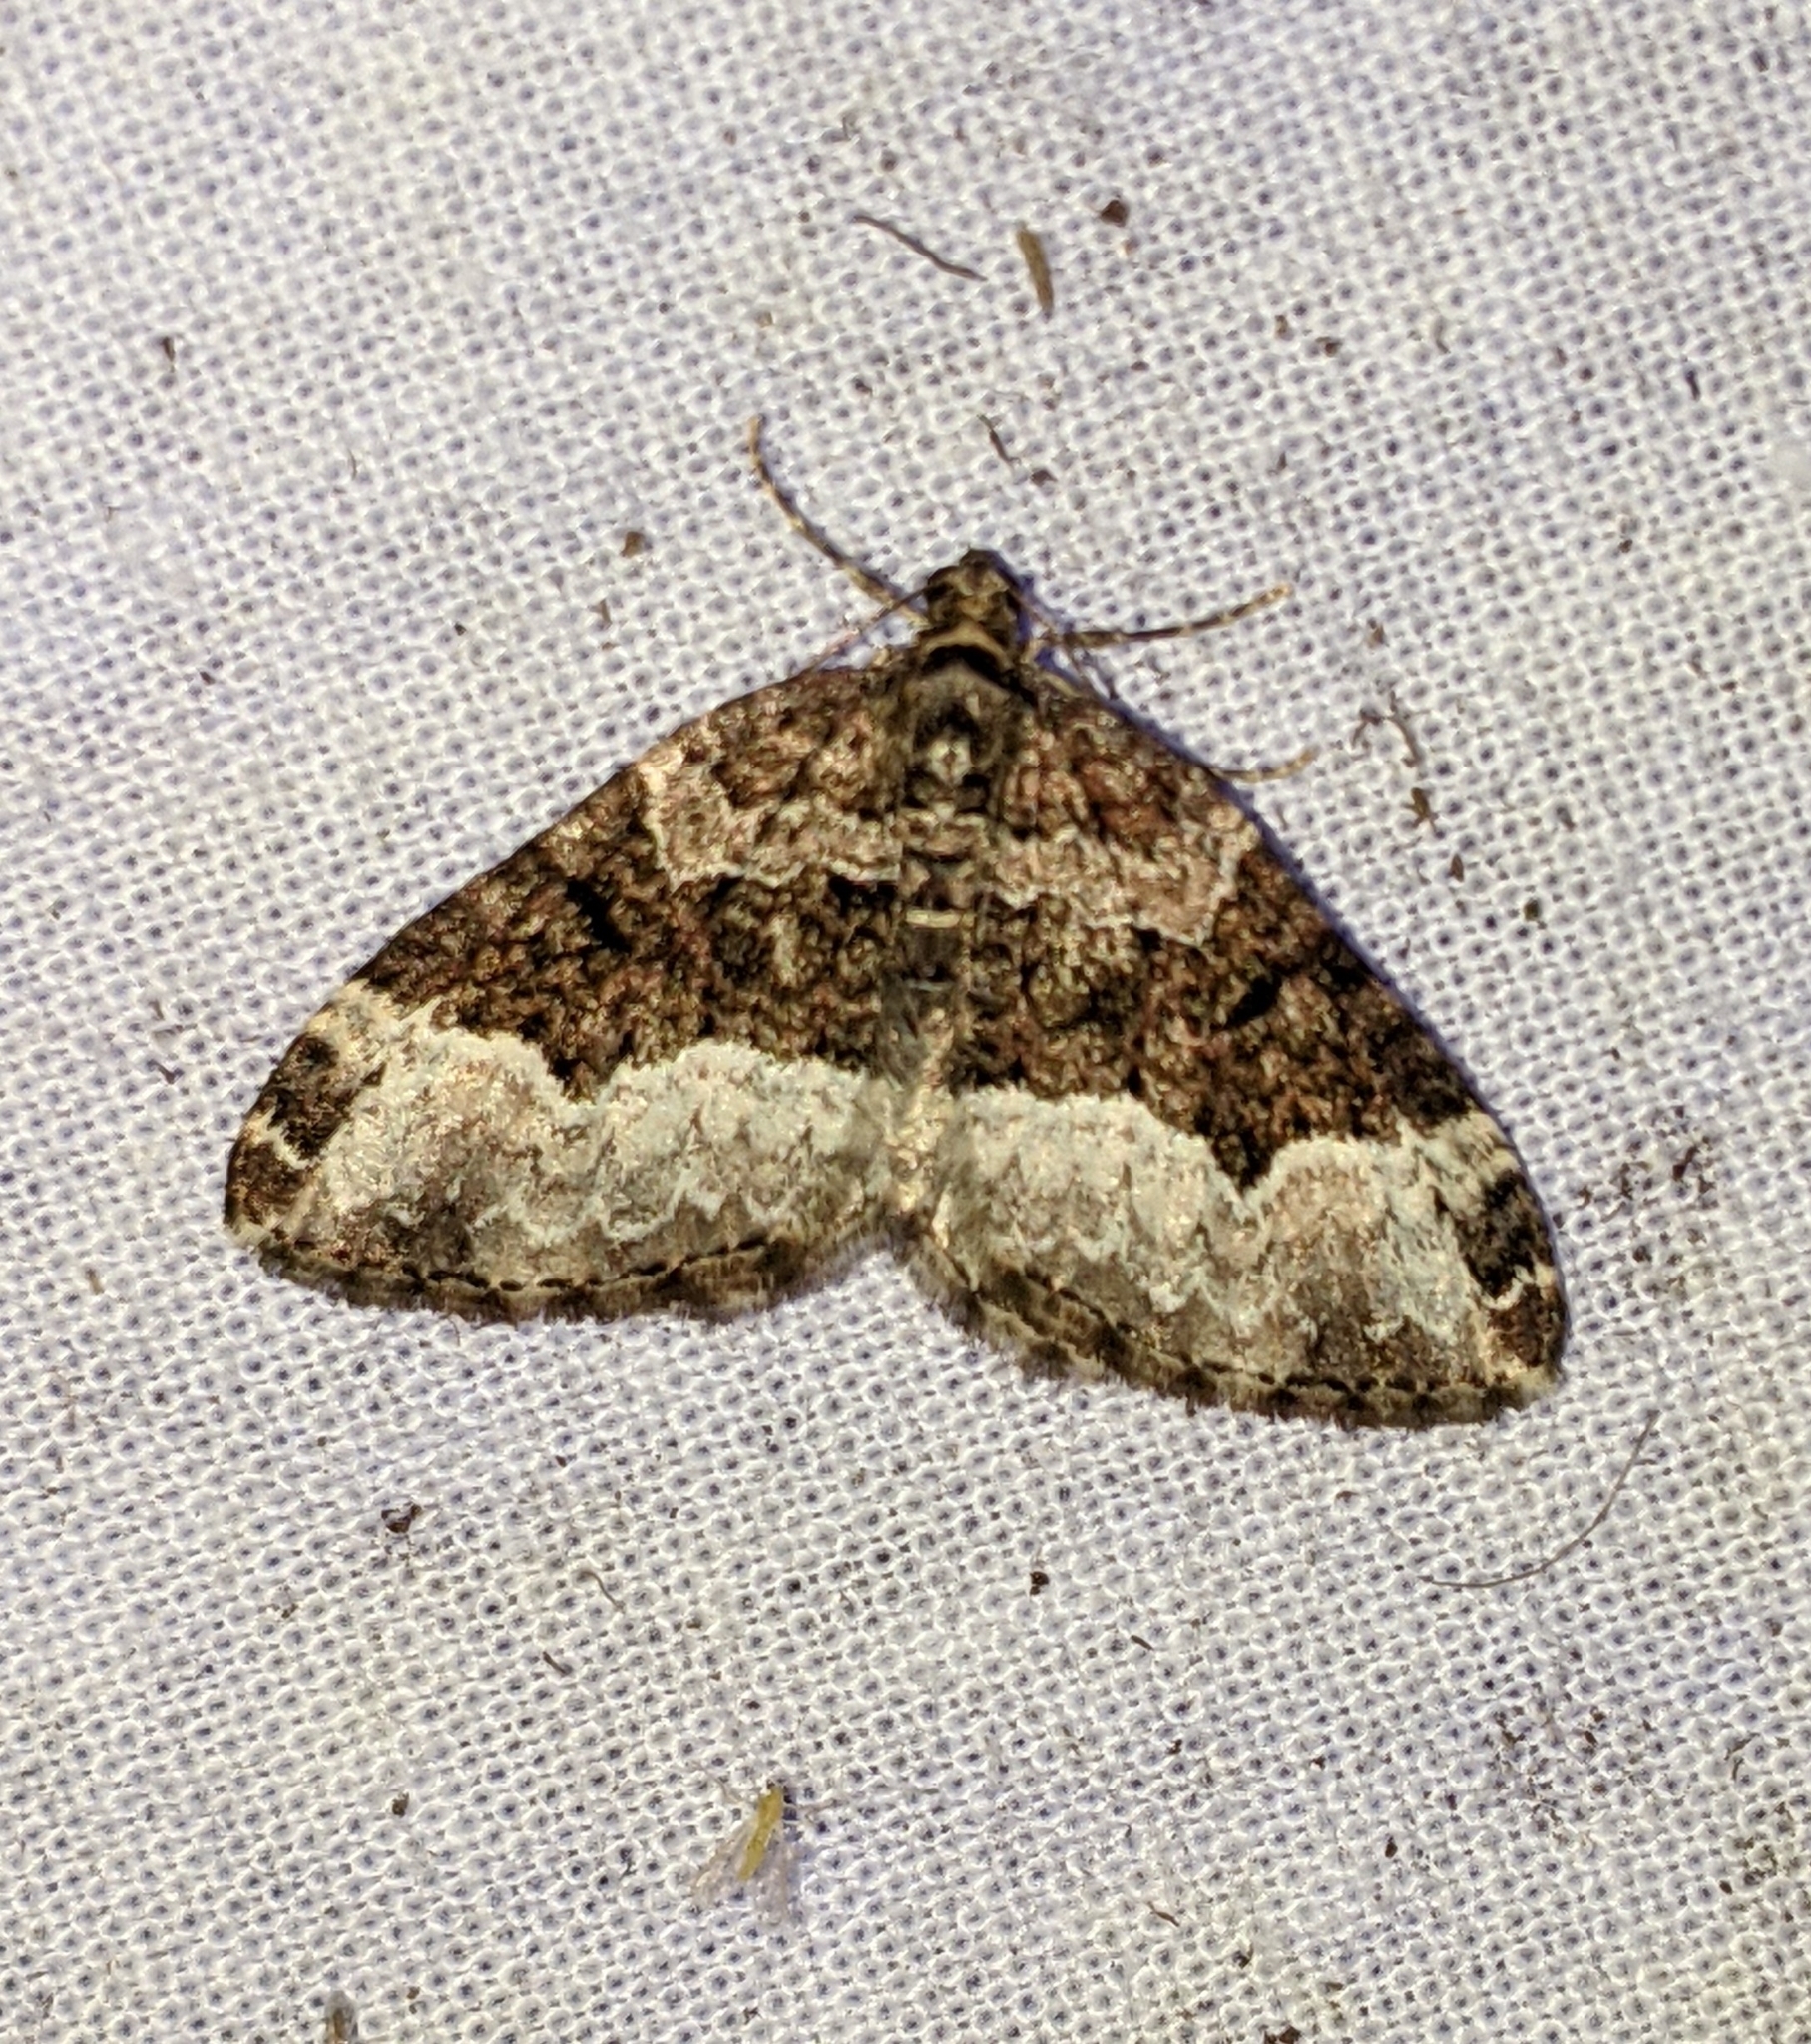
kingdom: Animalia
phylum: Arthropoda
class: Insecta
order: Lepidoptera
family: Geometridae
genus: Euphyia
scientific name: Euphyia intermediata
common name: Sharp-angled carpet
